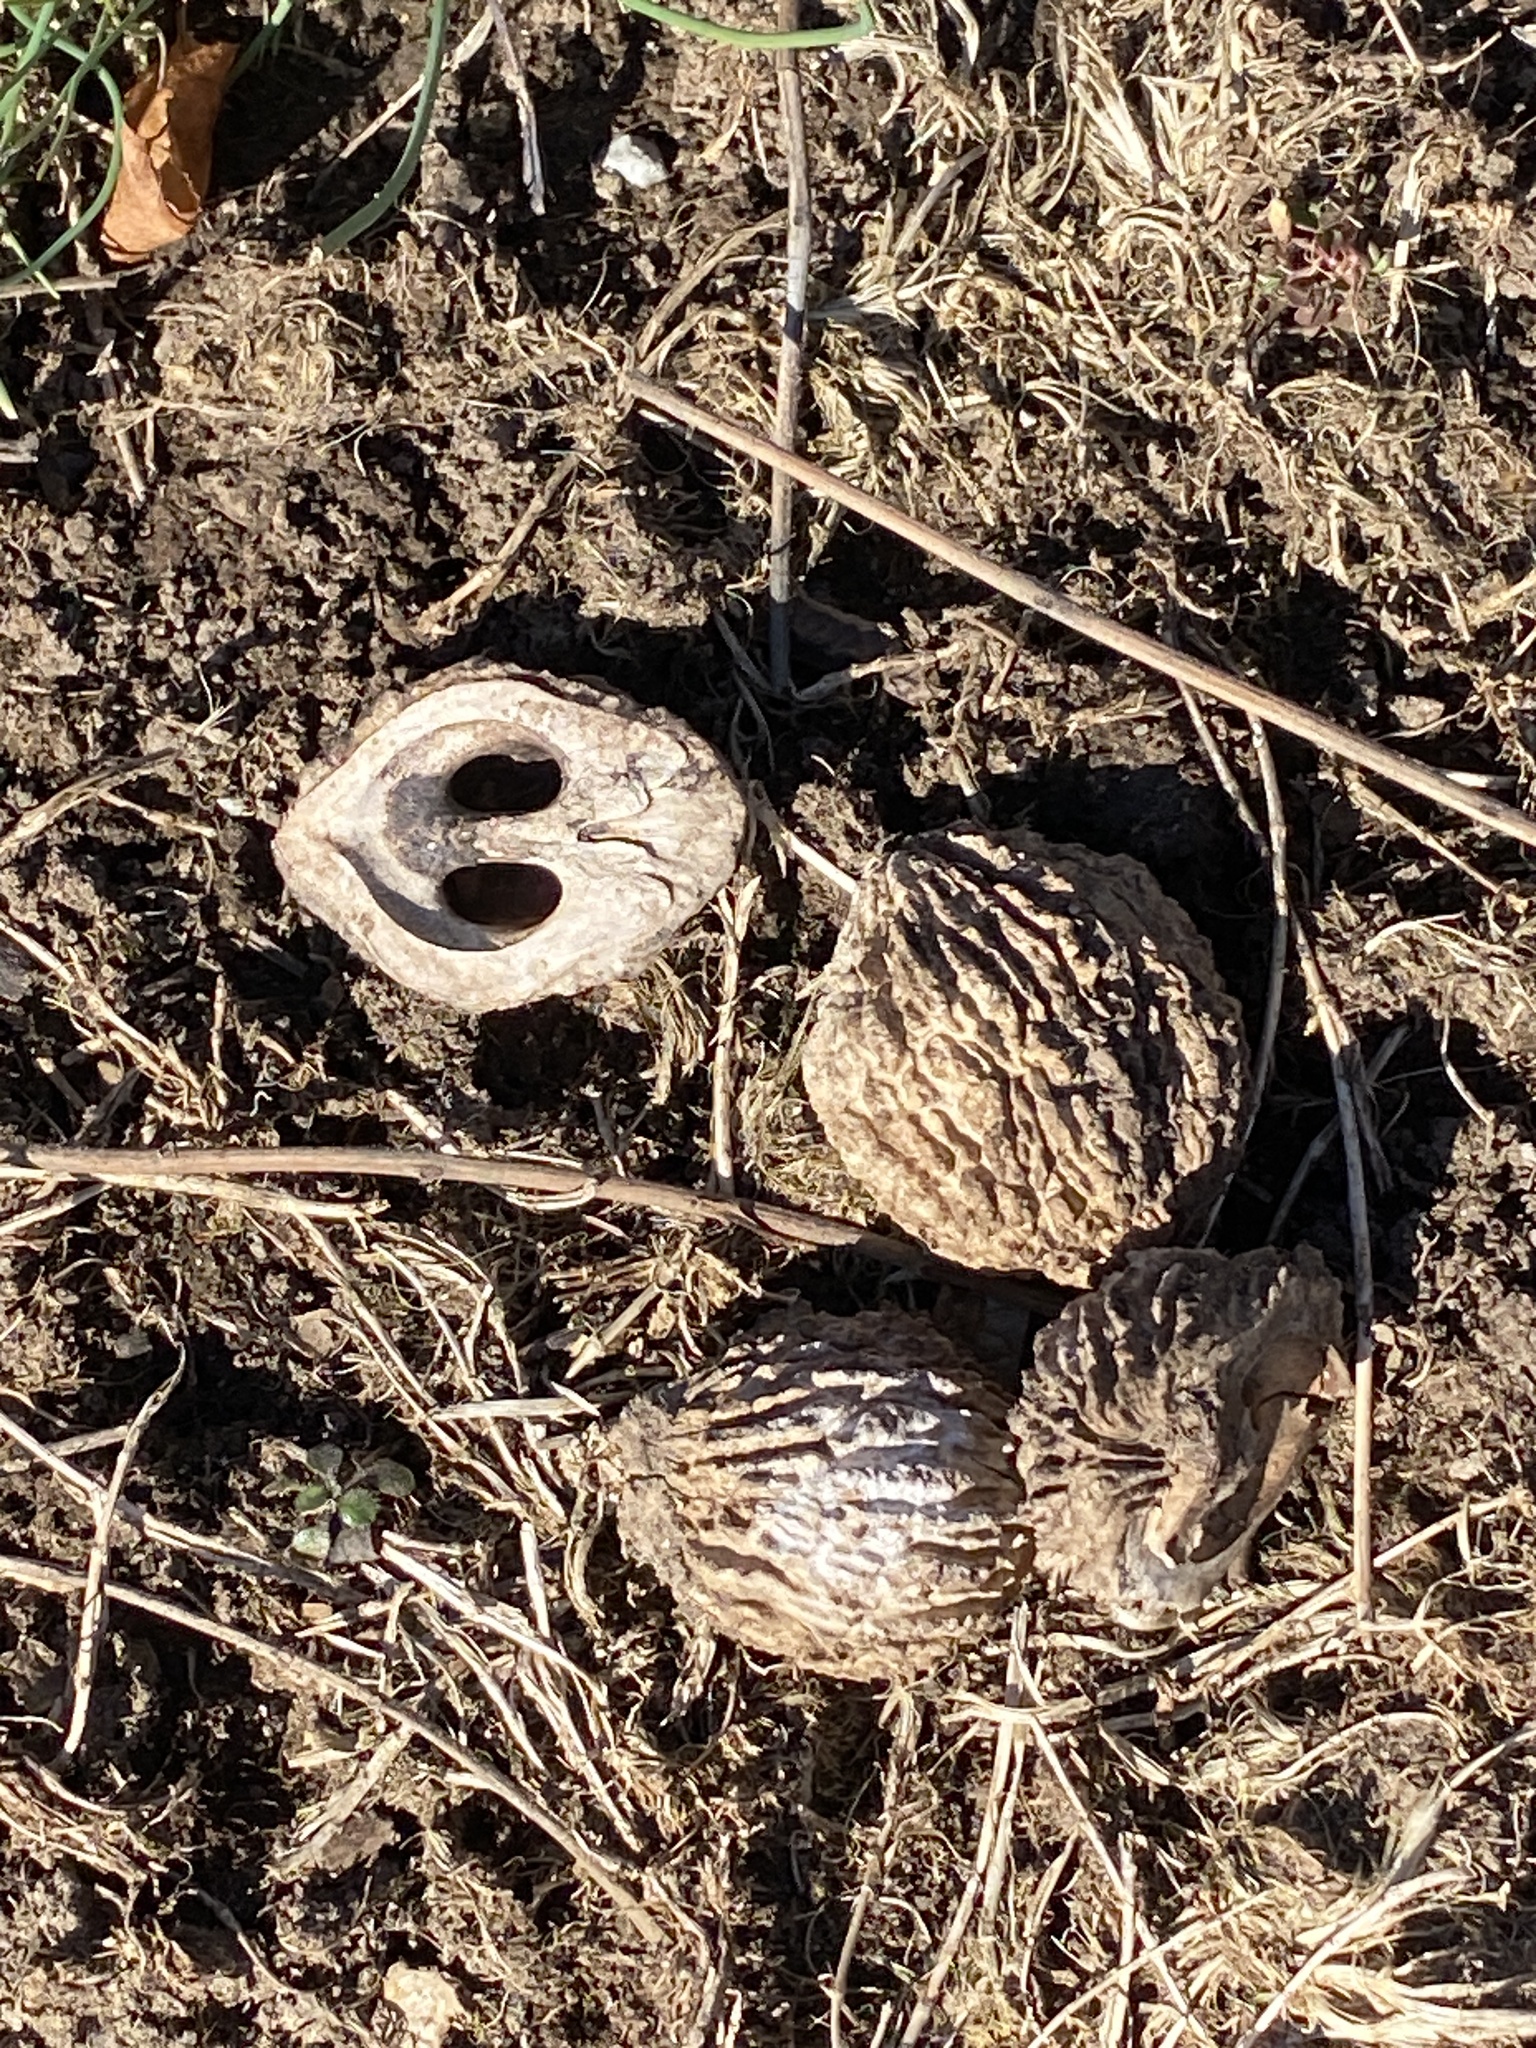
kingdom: Plantae
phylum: Tracheophyta
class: Magnoliopsida
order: Fagales
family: Juglandaceae
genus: Juglans
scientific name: Juglans nigra
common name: Black walnut
